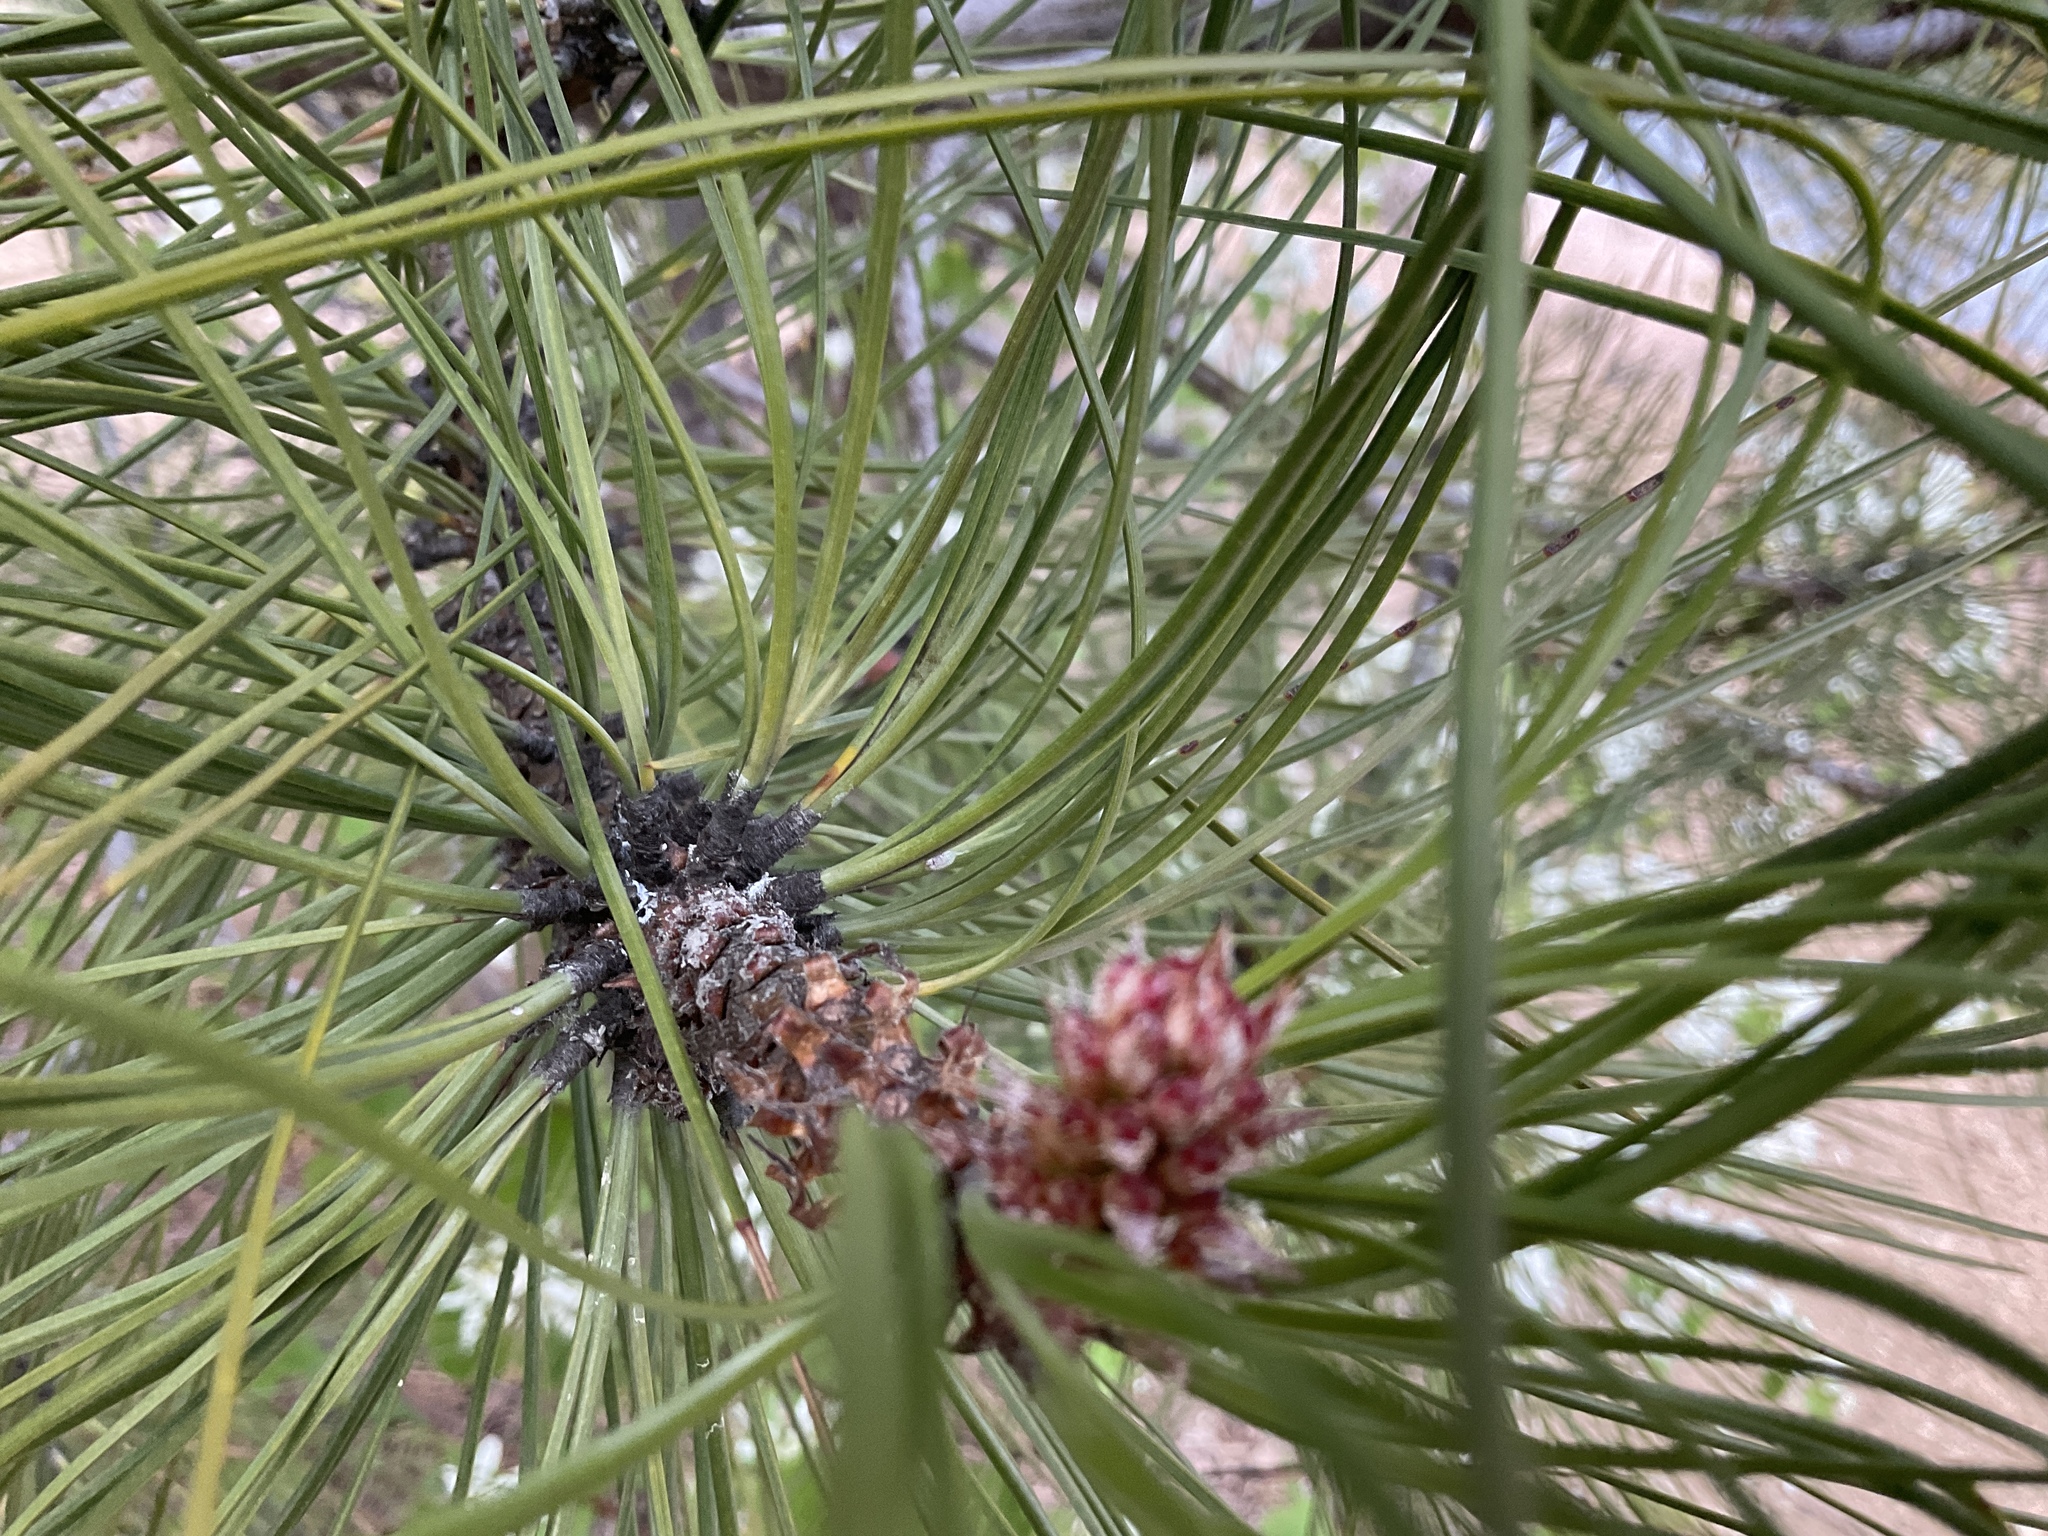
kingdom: Plantae
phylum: Tracheophyta
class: Pinopsida
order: Pinales
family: Pinaceae
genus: Pinus
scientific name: Pinus ponderosa
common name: Western yellow-pine
